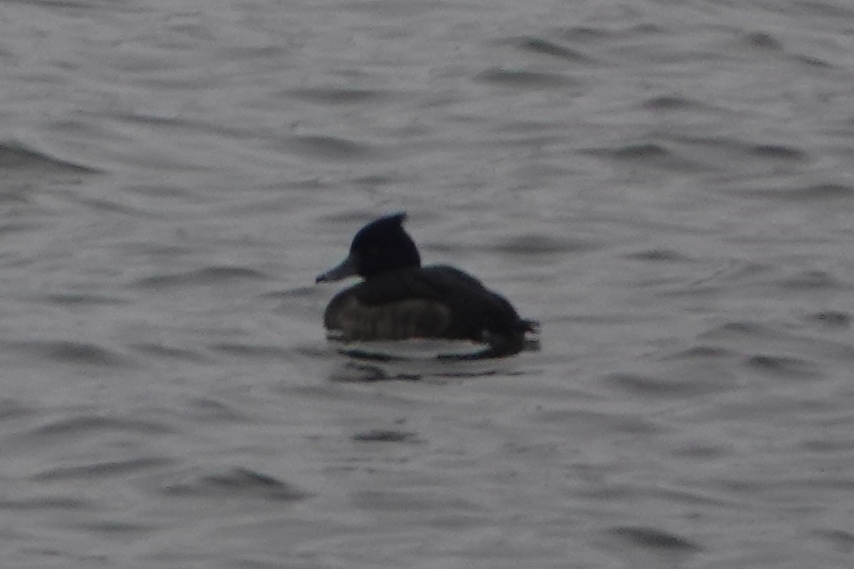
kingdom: Animalia
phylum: Chordata
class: Aves
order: Anseriformes
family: Anatidae
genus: Aythya
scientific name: Aythya fuligula
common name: Tufted duck
